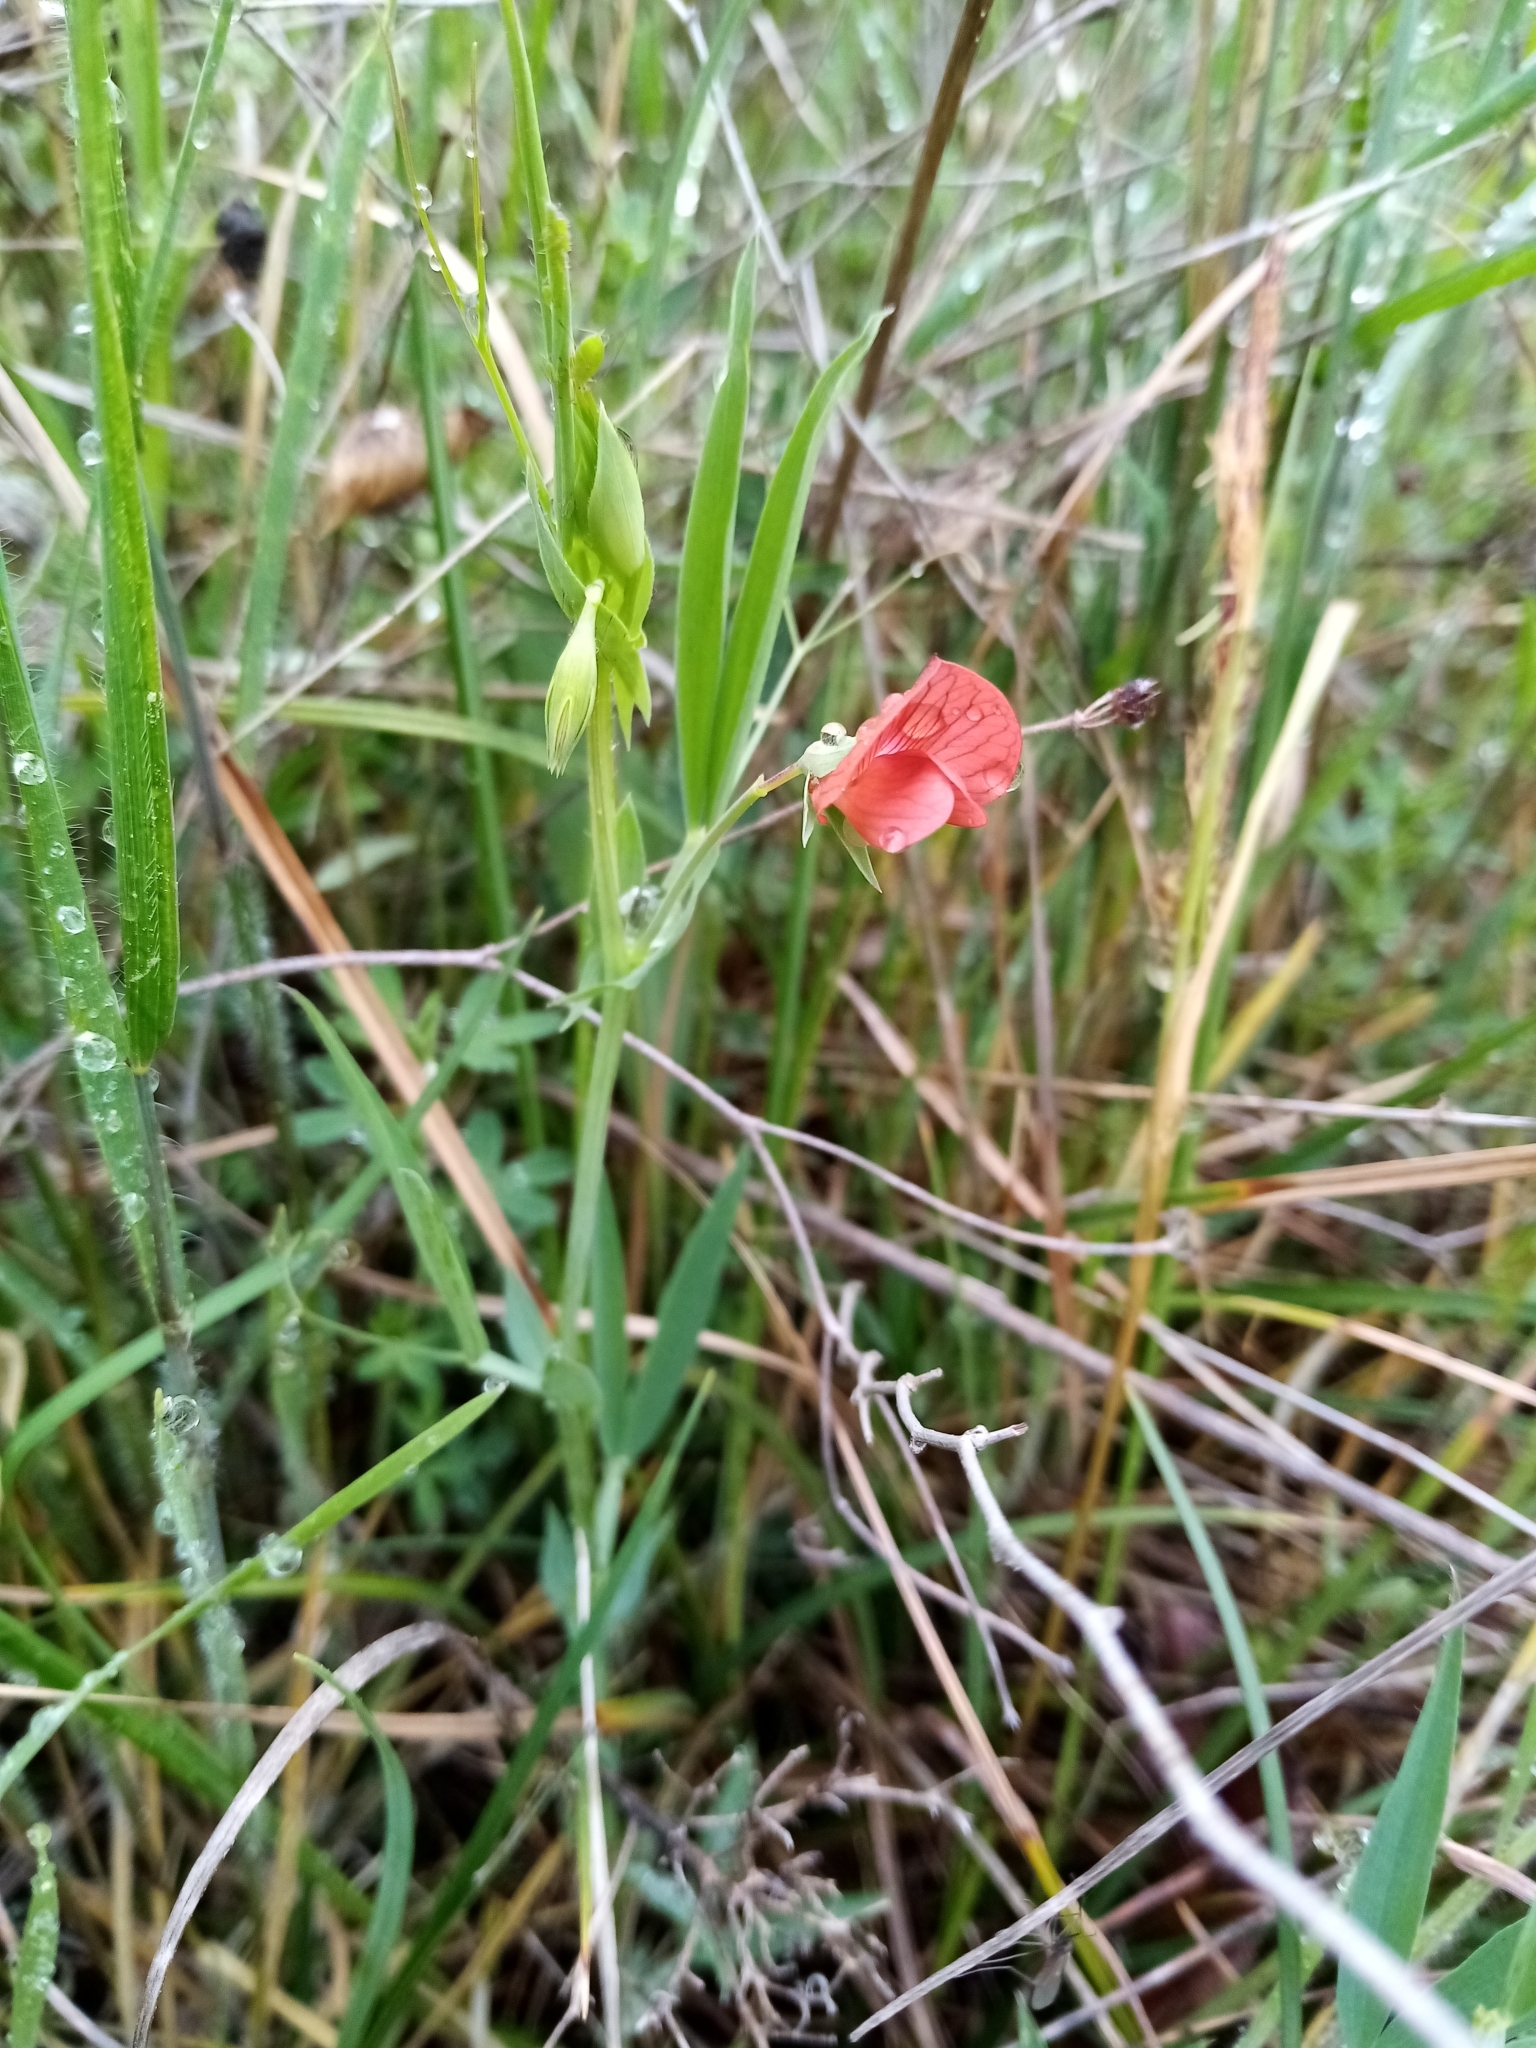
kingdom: Plantae
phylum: Tracheophyta
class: Magnoliopsida
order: Fabales
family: Fabaceae
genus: Lathyrus
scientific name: Lathyrus sphaericus
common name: Grass pea
